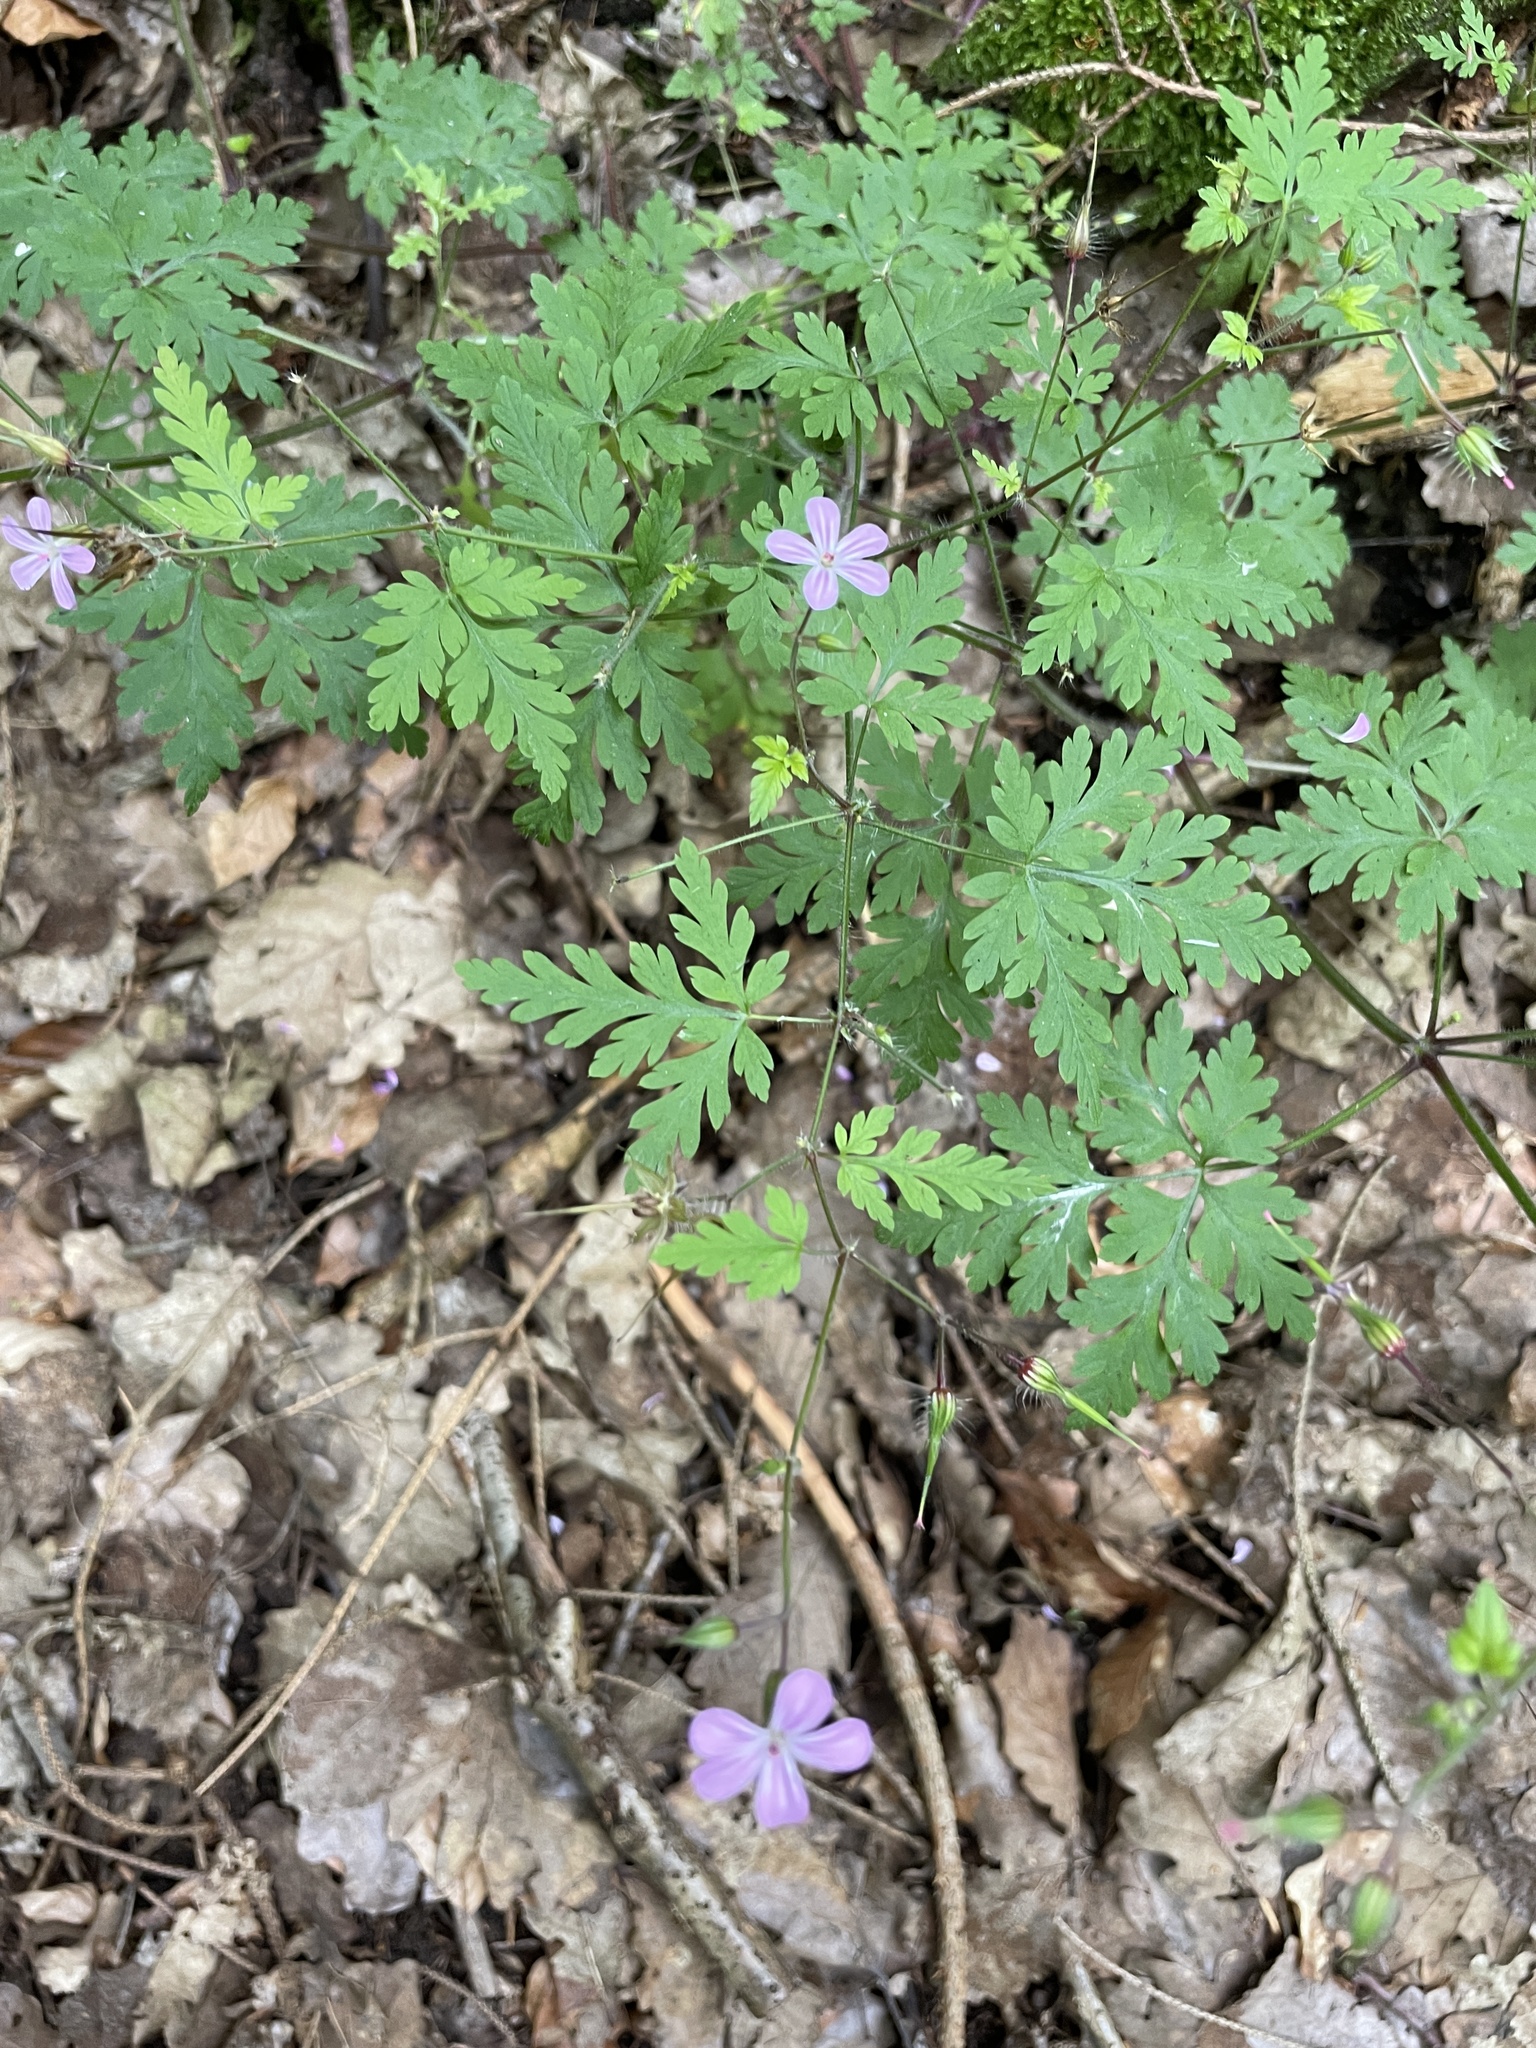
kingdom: Plantae
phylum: Tracheophyta
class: Magnoliopsida
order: Geraniales
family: Geraniaceae
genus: Geranium
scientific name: Geranium robertianum
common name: Herb-robert
